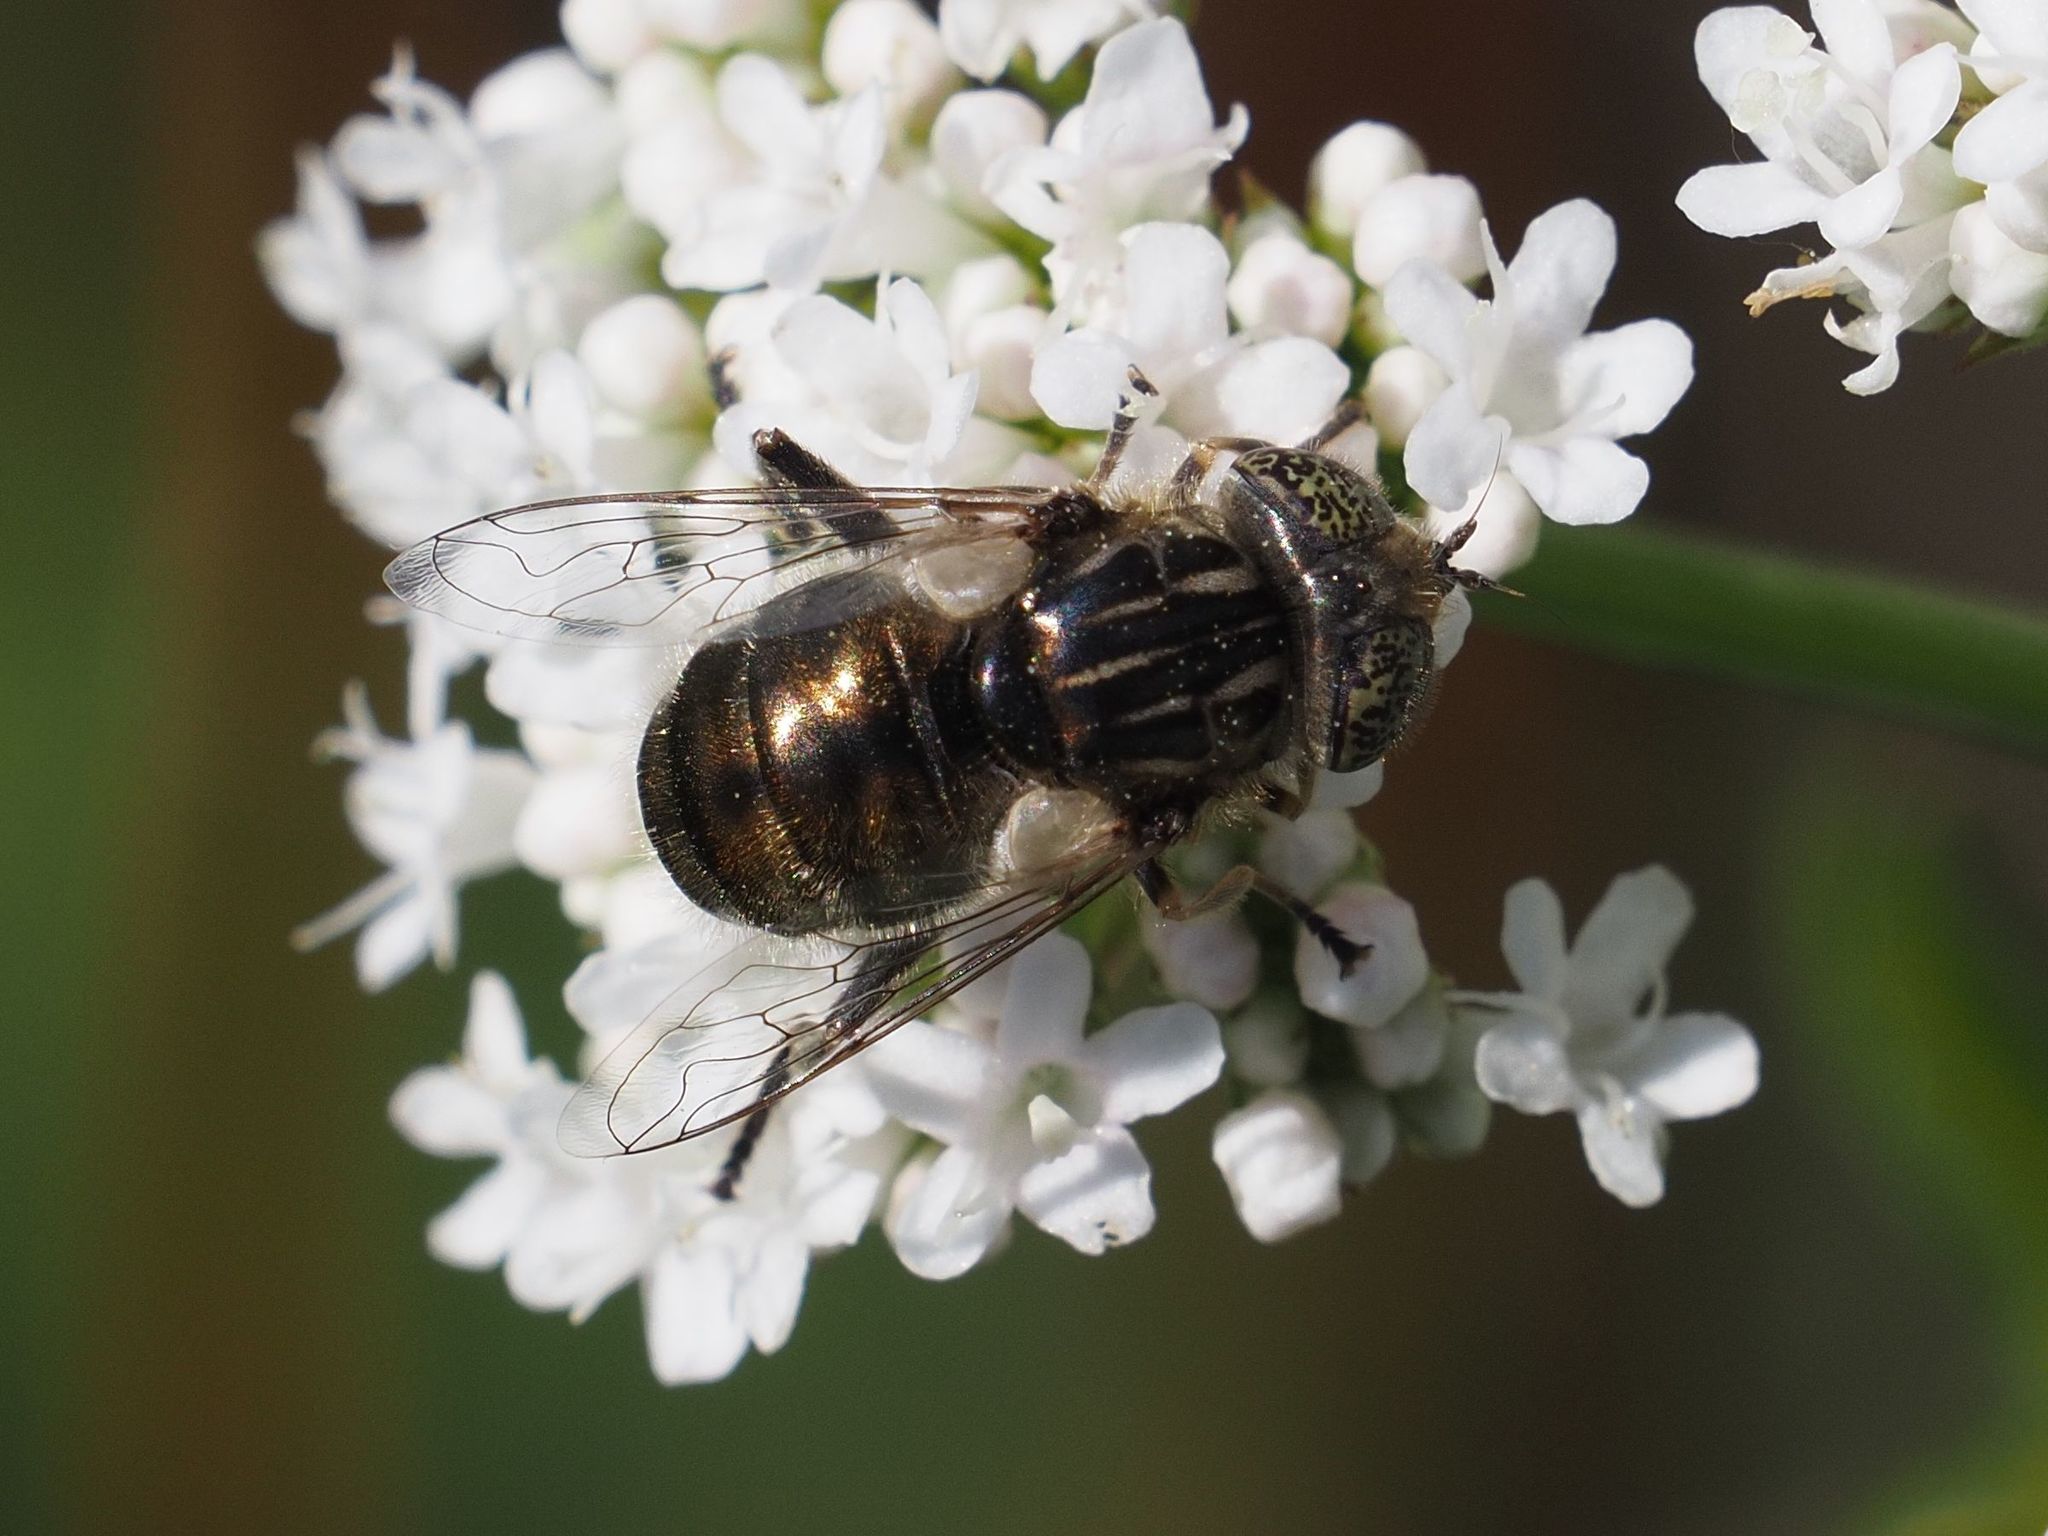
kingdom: Animalia
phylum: Arthropoda
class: Insecta
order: Diptera
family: Syrphidae
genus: Eristalinus
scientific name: Eristalinus aeneus
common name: Syrphid fly
